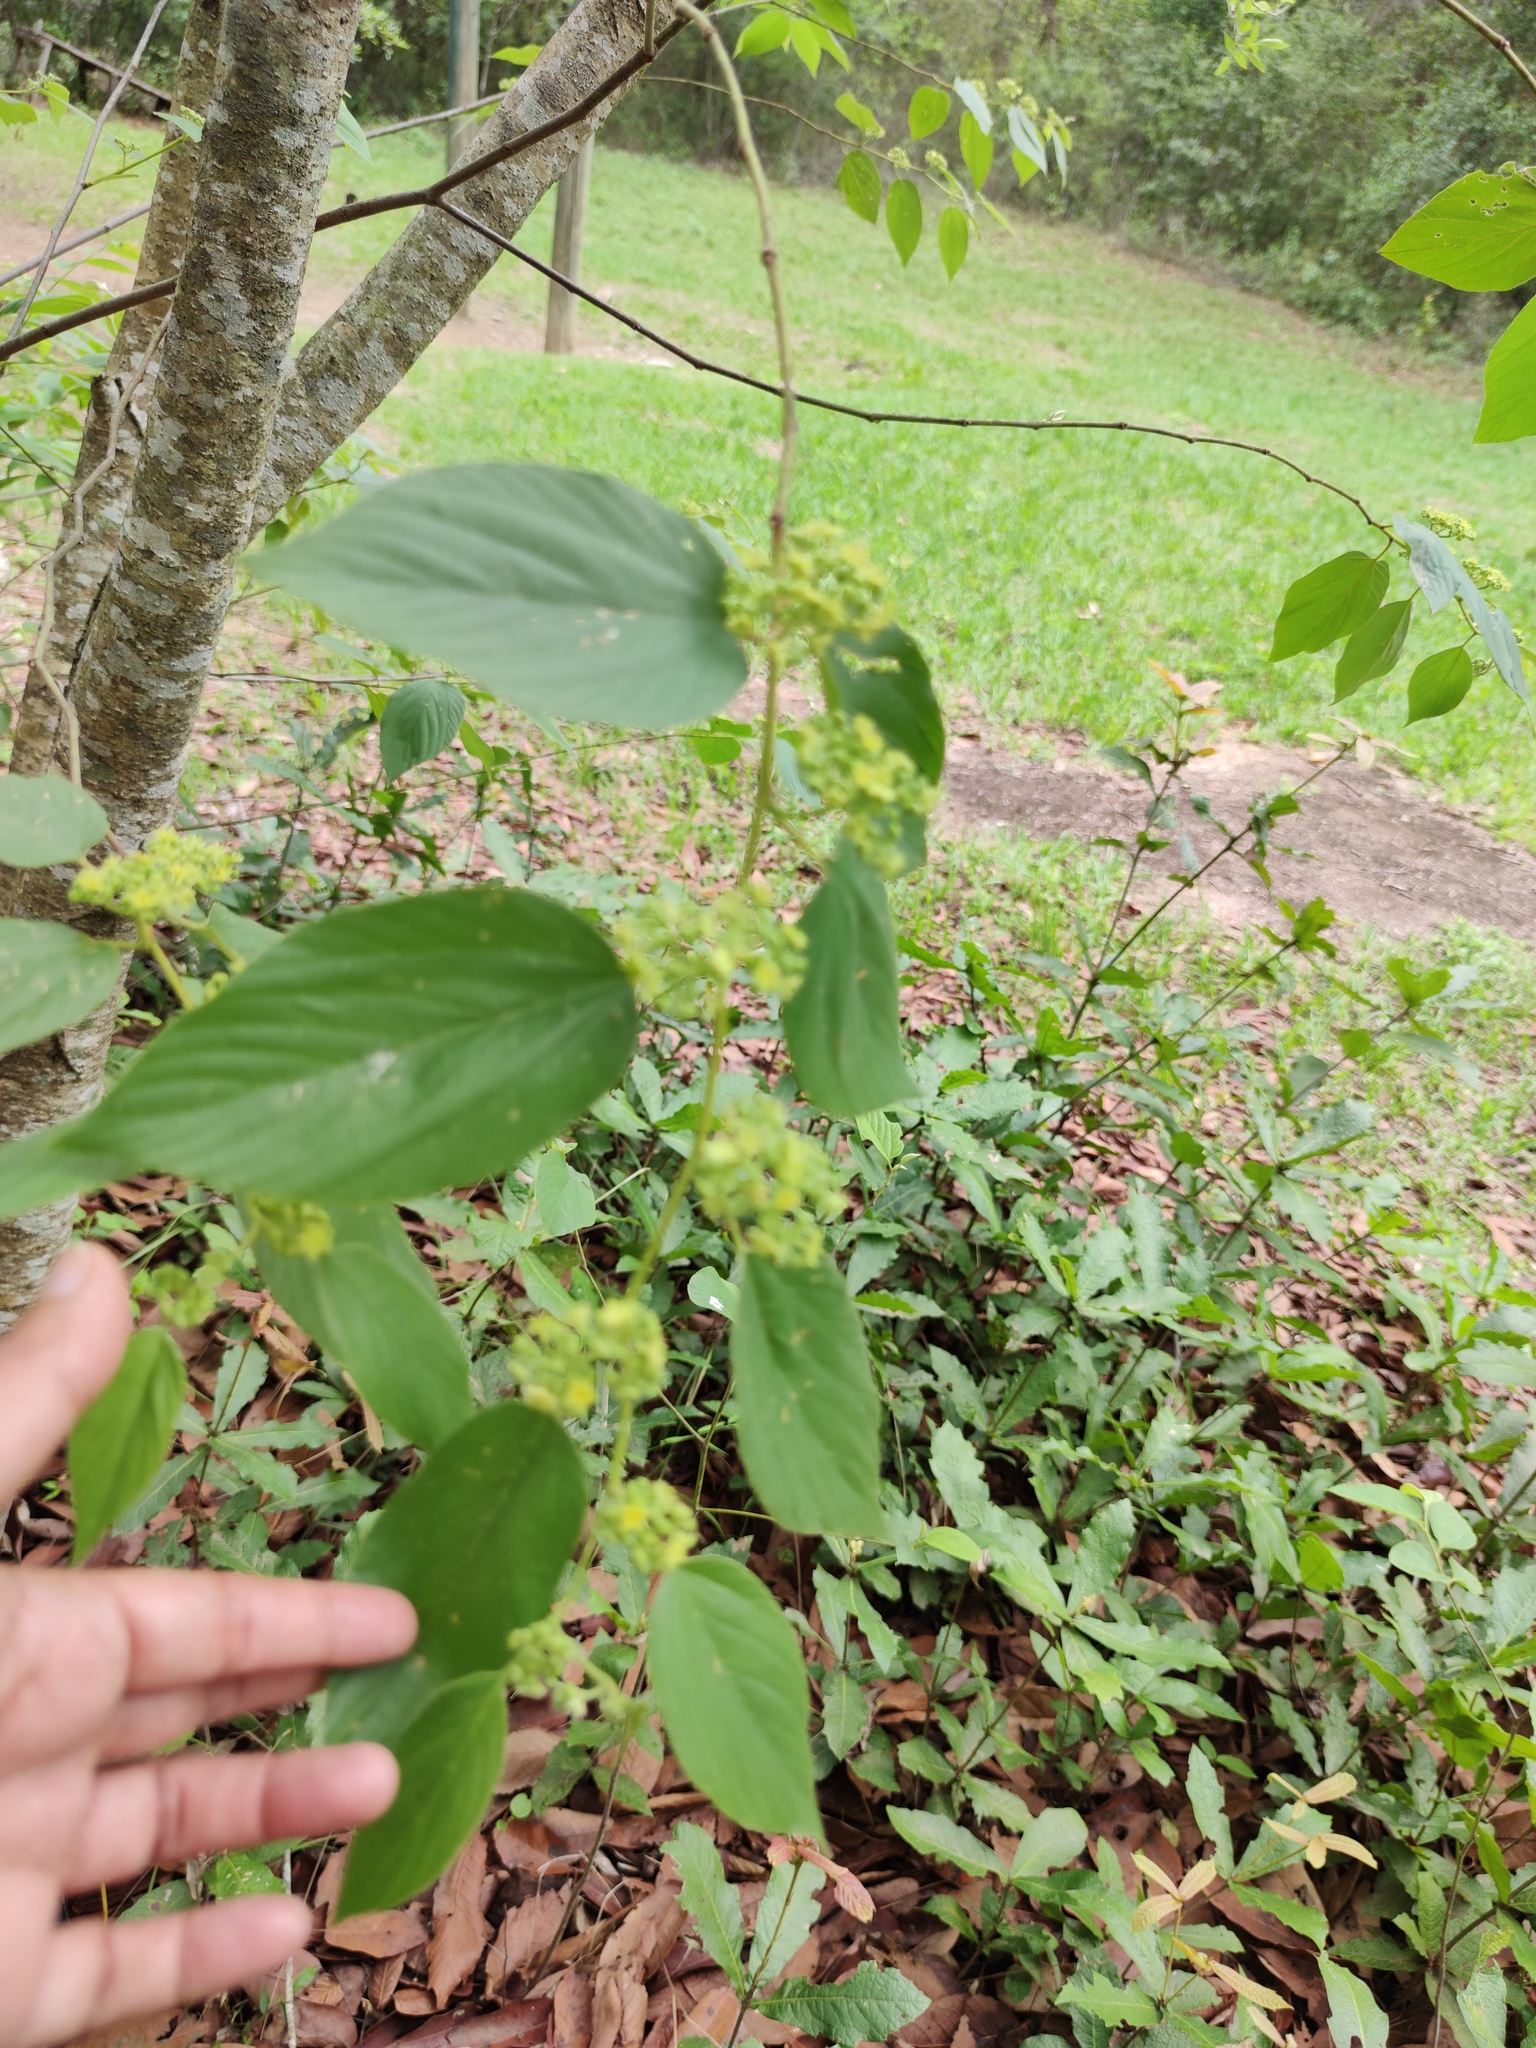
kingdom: Plantae
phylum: Tracheophyta
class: Magnoliopsida
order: Rosales
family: Rhamnaceae
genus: Colubrina
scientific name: Colubrina greggii
